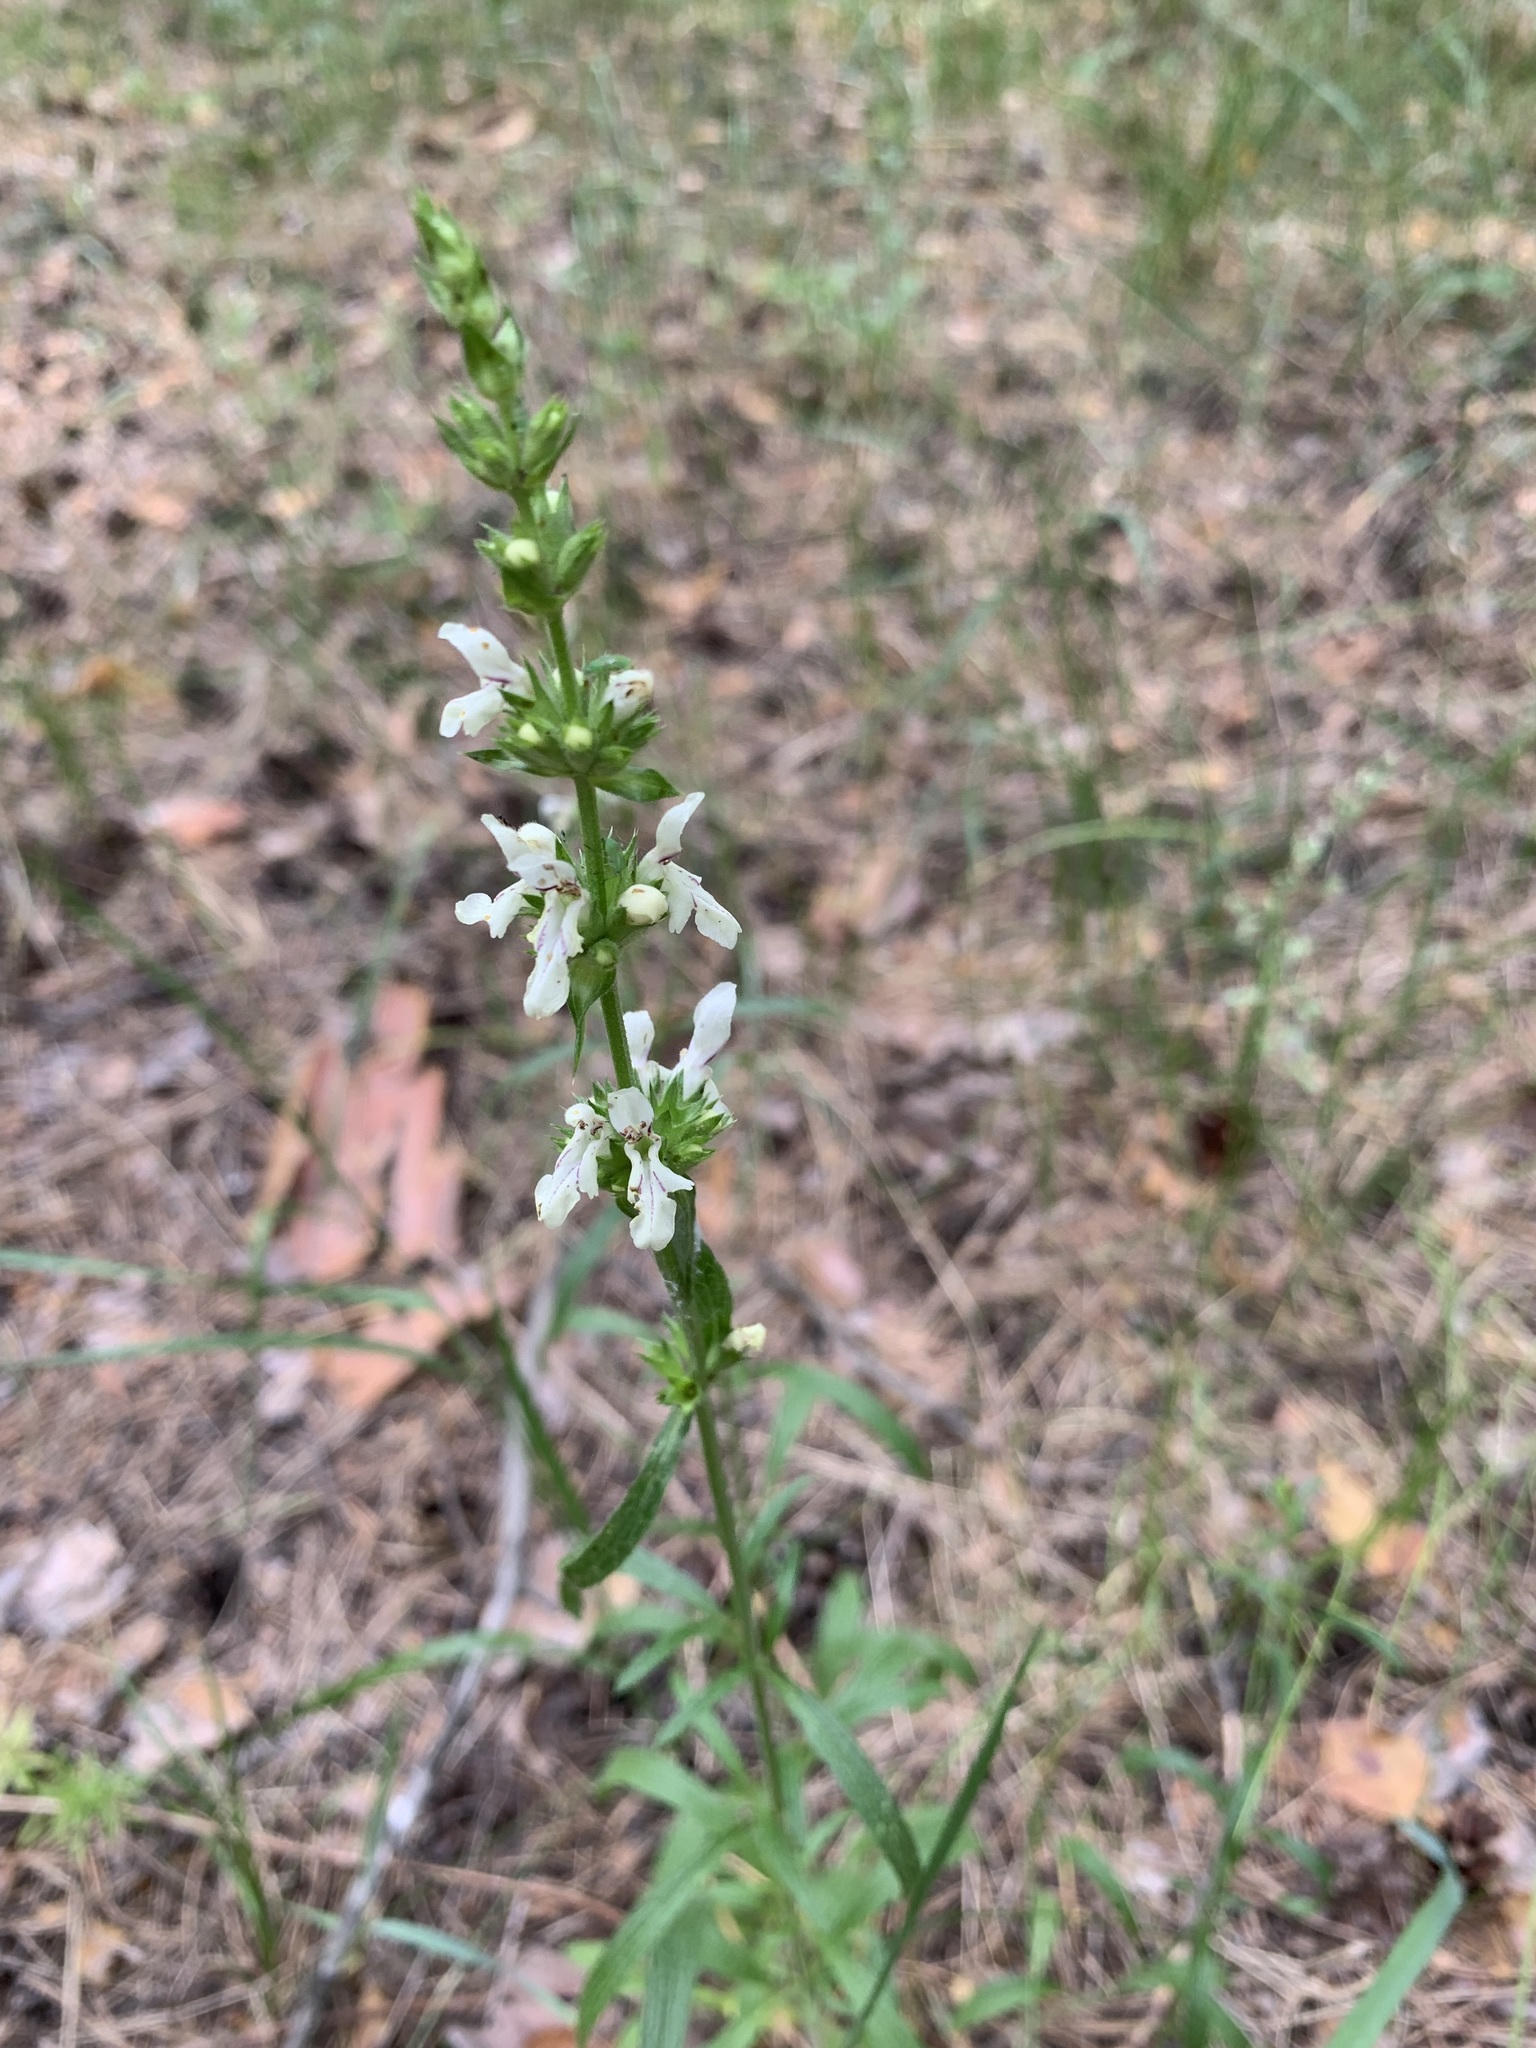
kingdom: Plantae
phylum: Tracheophyta
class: Magnoliopsida
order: Lamiales
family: Lamiaceae
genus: Stachys
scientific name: Stachys recta
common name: Perennial yellow-woundwort
